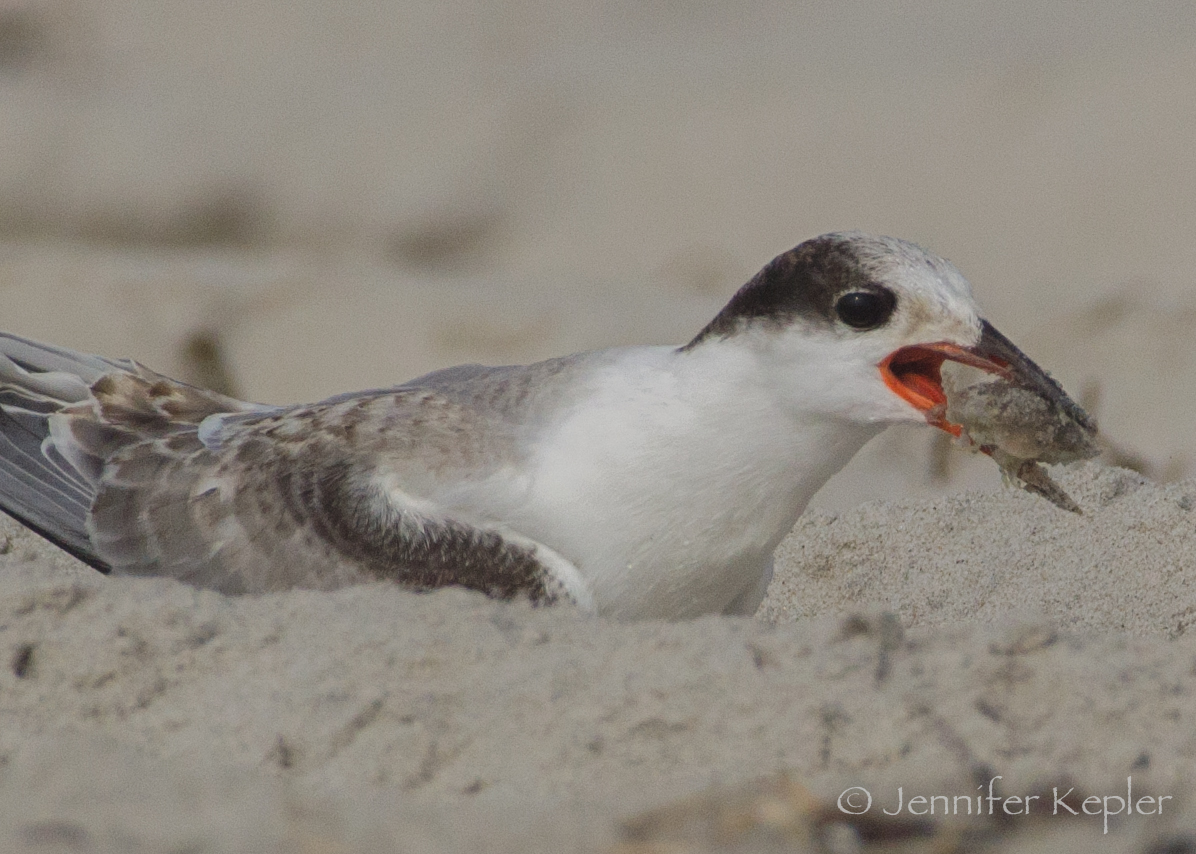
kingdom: Animalia
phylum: Chordata
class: Aves
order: Charadriiformes
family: Laridae
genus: Sterna
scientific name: Sterna hirundo
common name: Common tern
